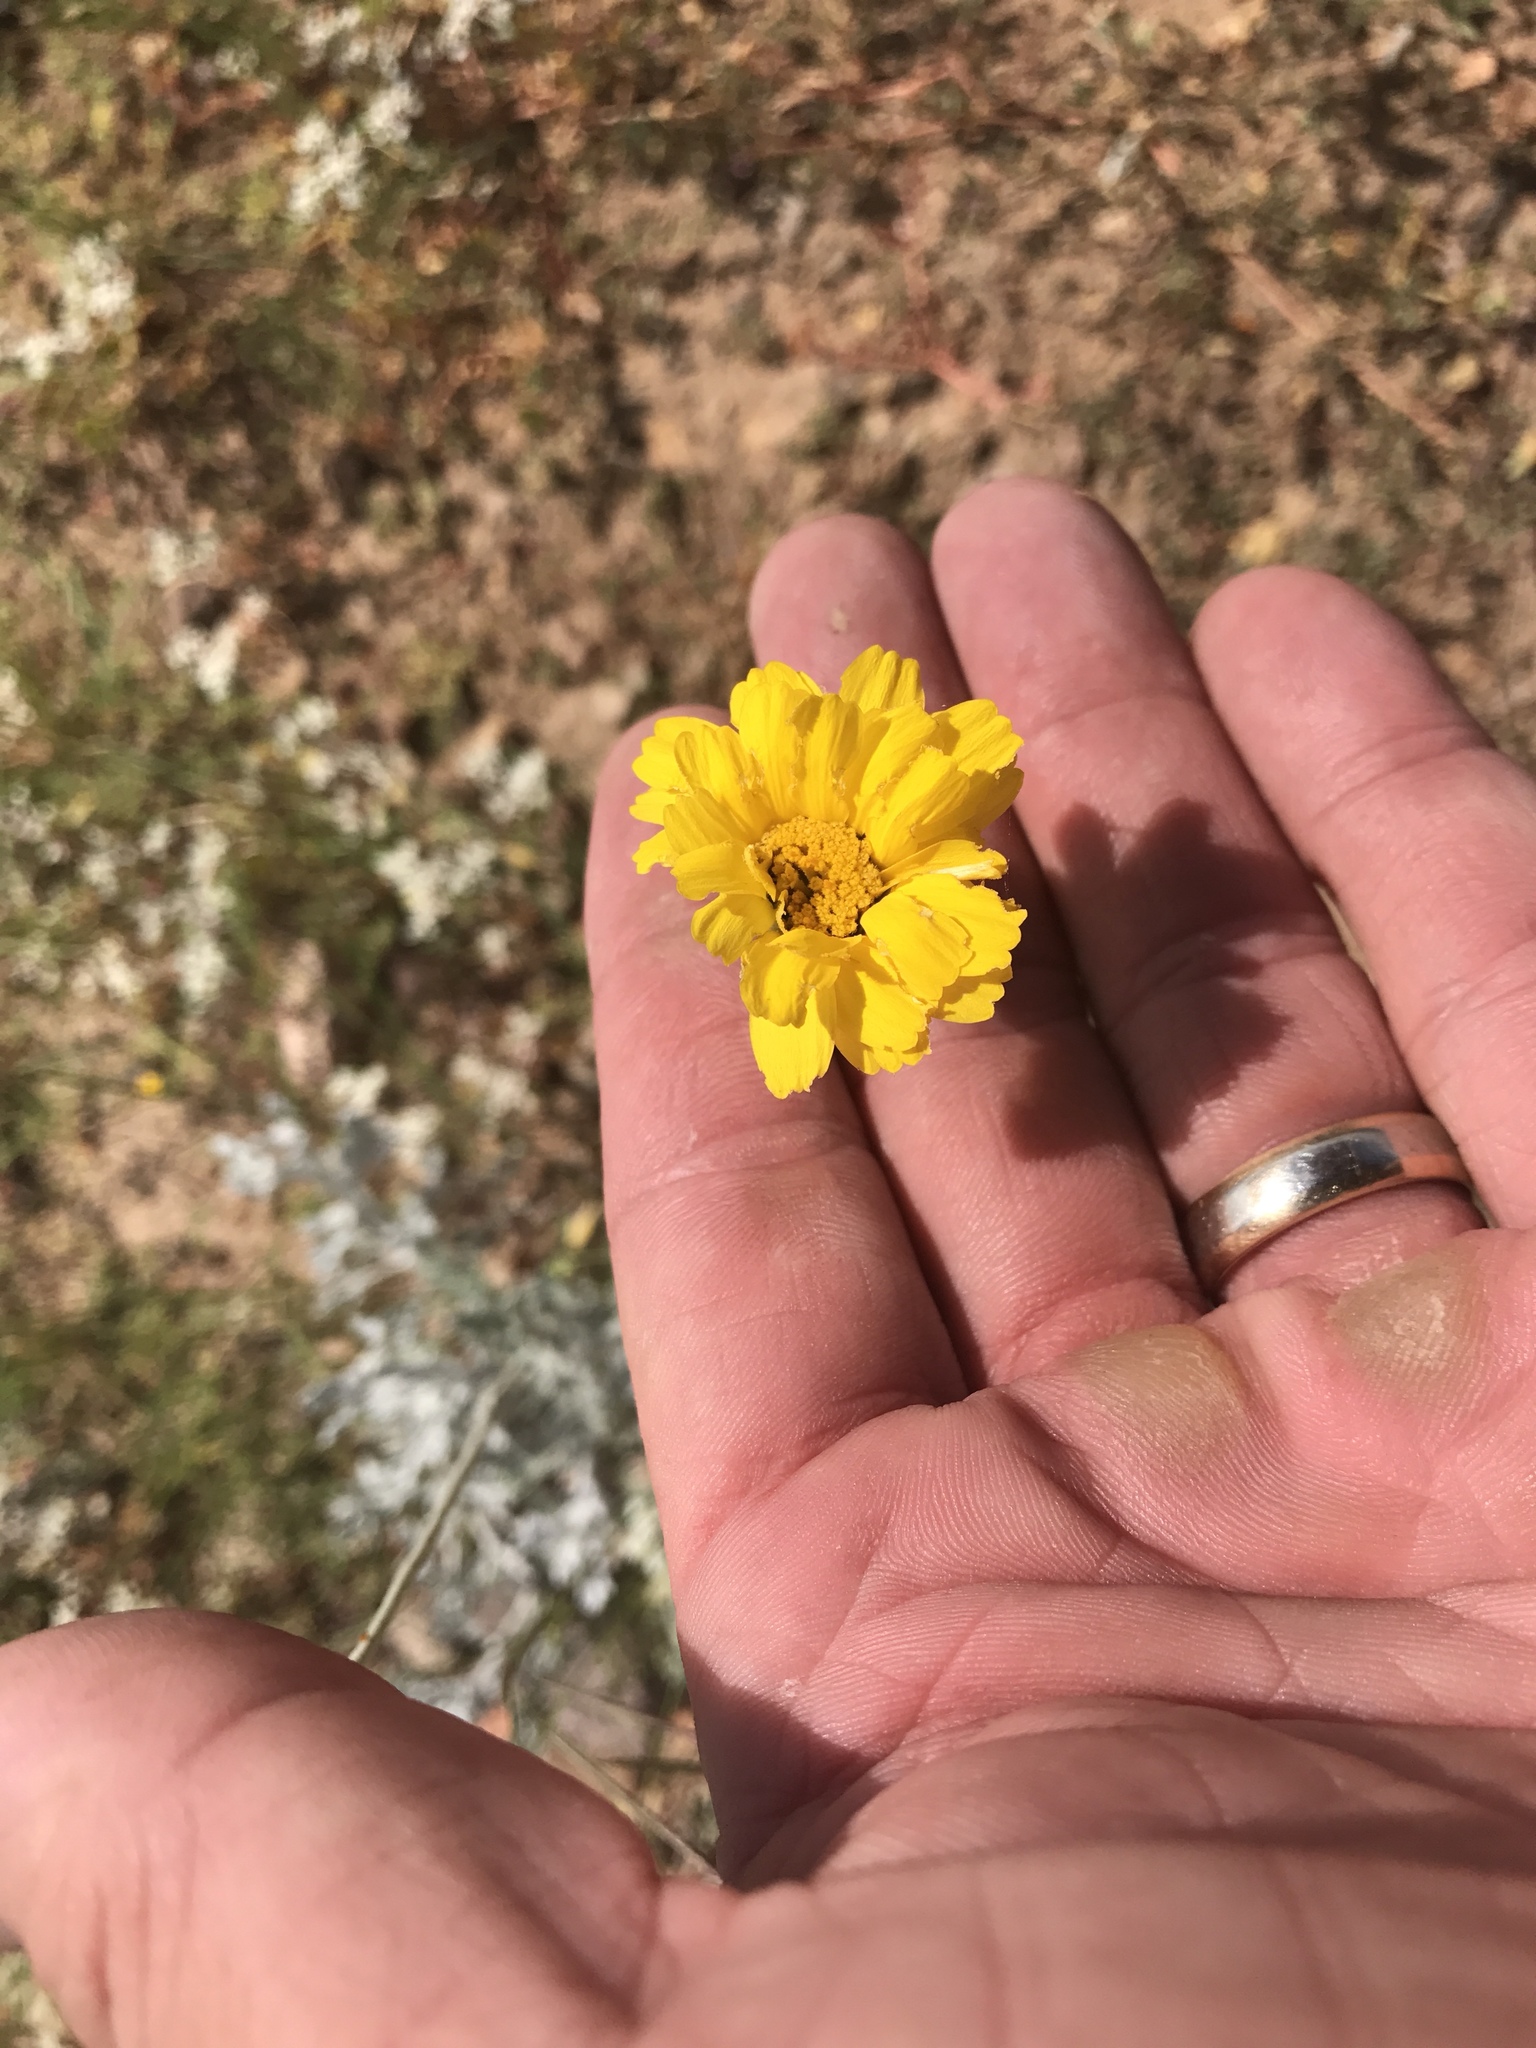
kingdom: Plantae
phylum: Tracheophyta
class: Magnoliopsida
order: Asterales
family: Asteraceae
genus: Baileya
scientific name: Baileya multiradiata
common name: Desert-marigold
